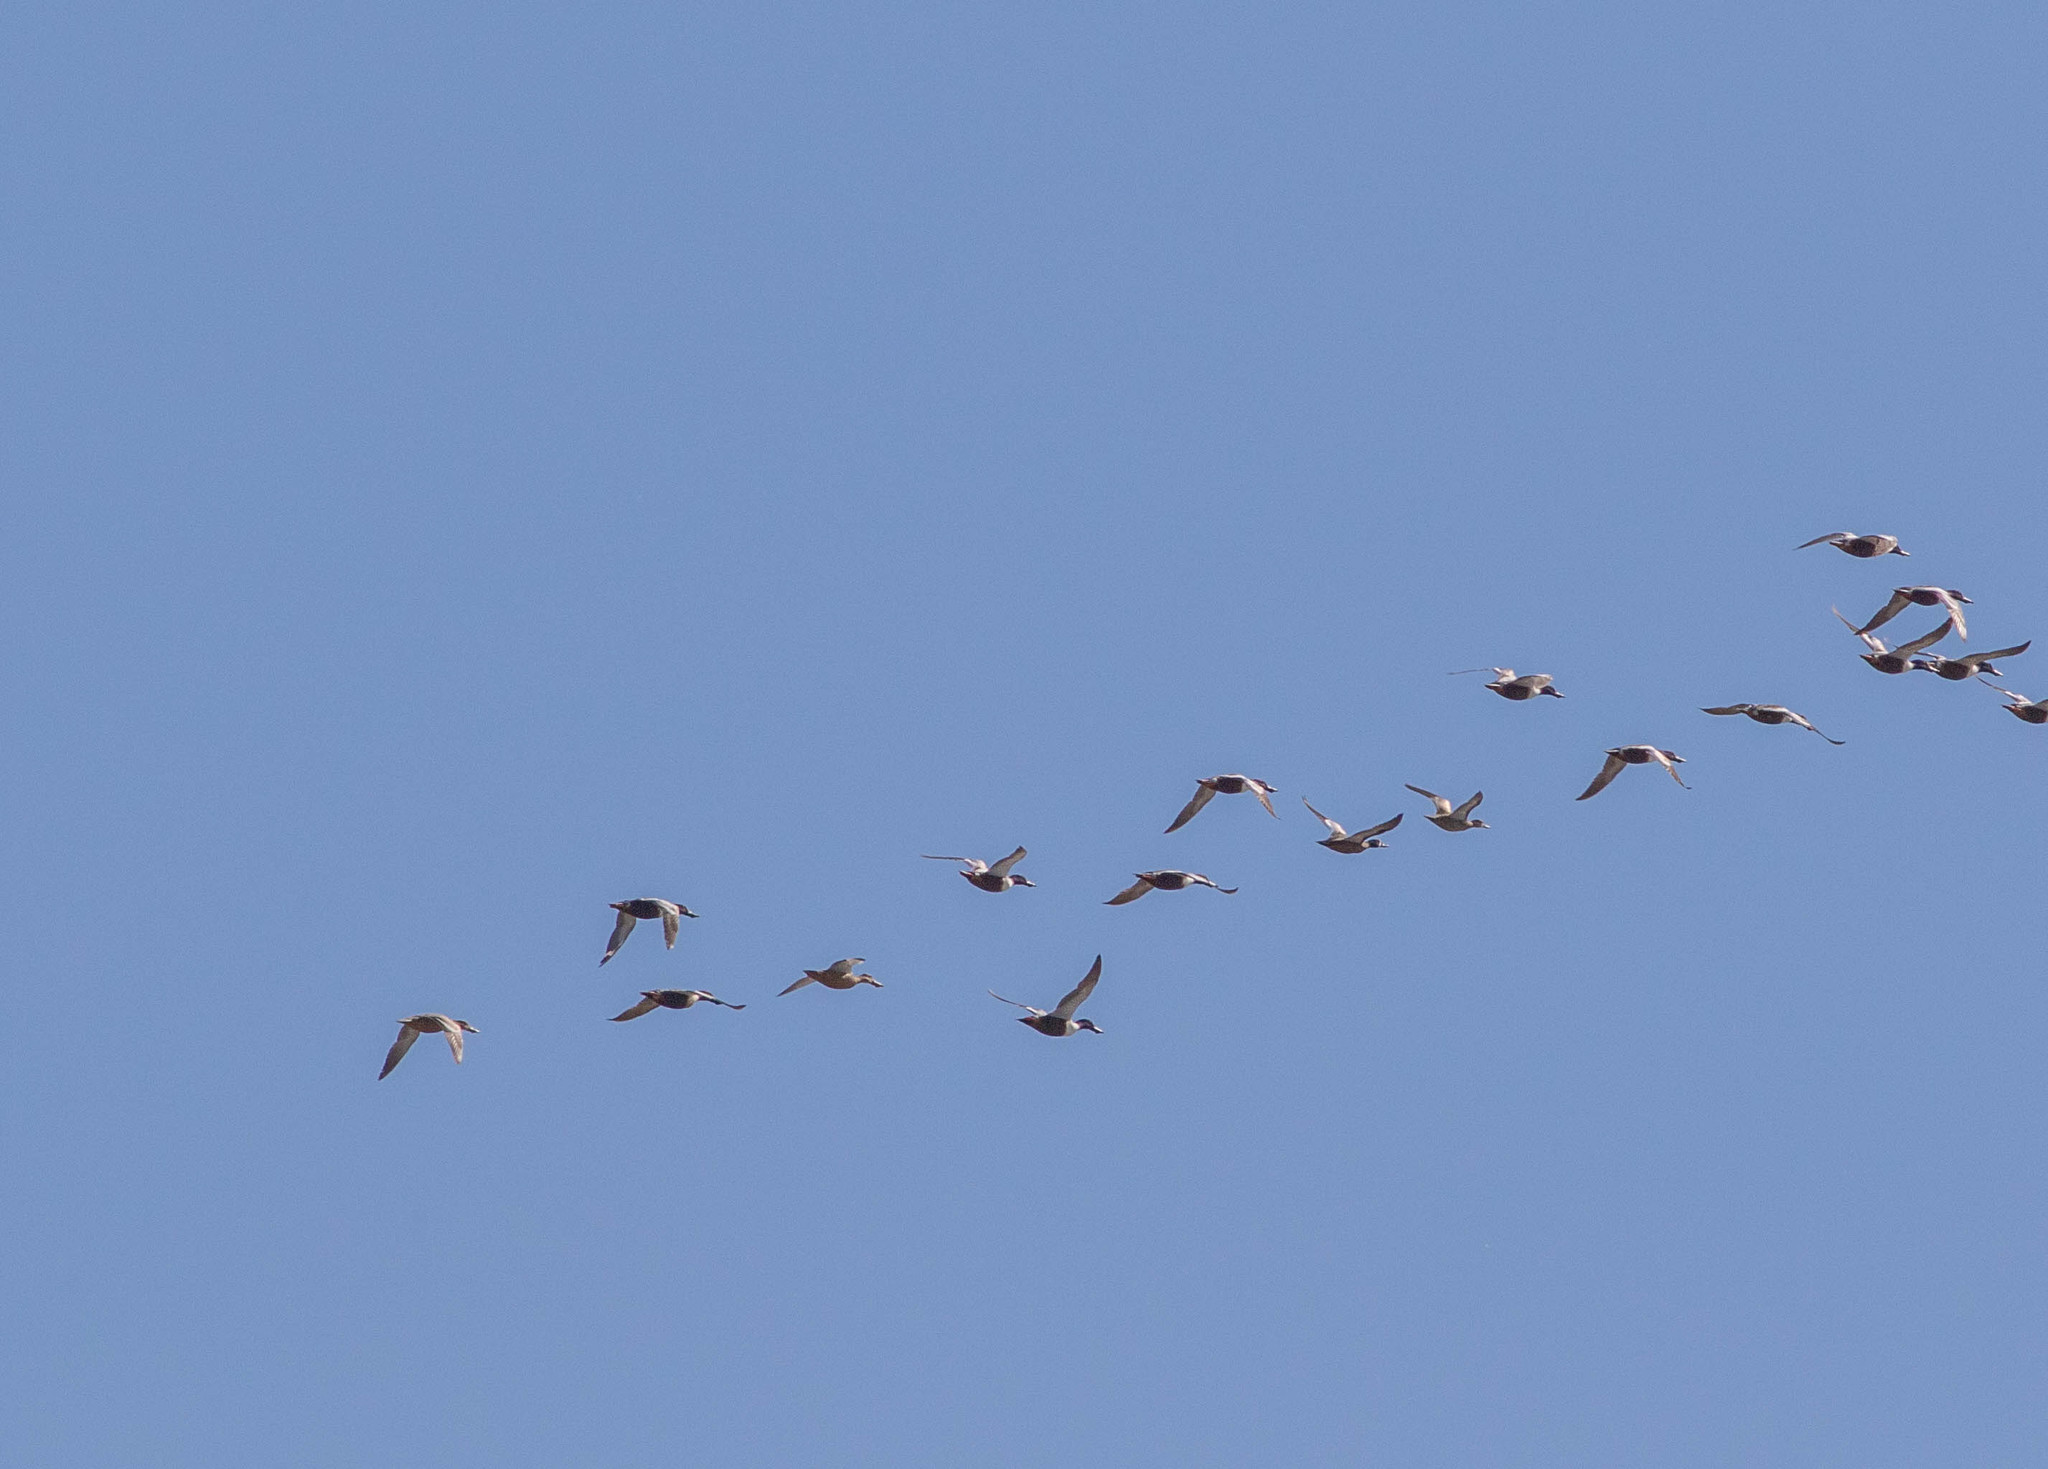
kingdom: Animalia
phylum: Chordata
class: Aves
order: Anseriformes
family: Anatidae
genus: Spatula
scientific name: Spatula clypeata
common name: Northern shoveler
